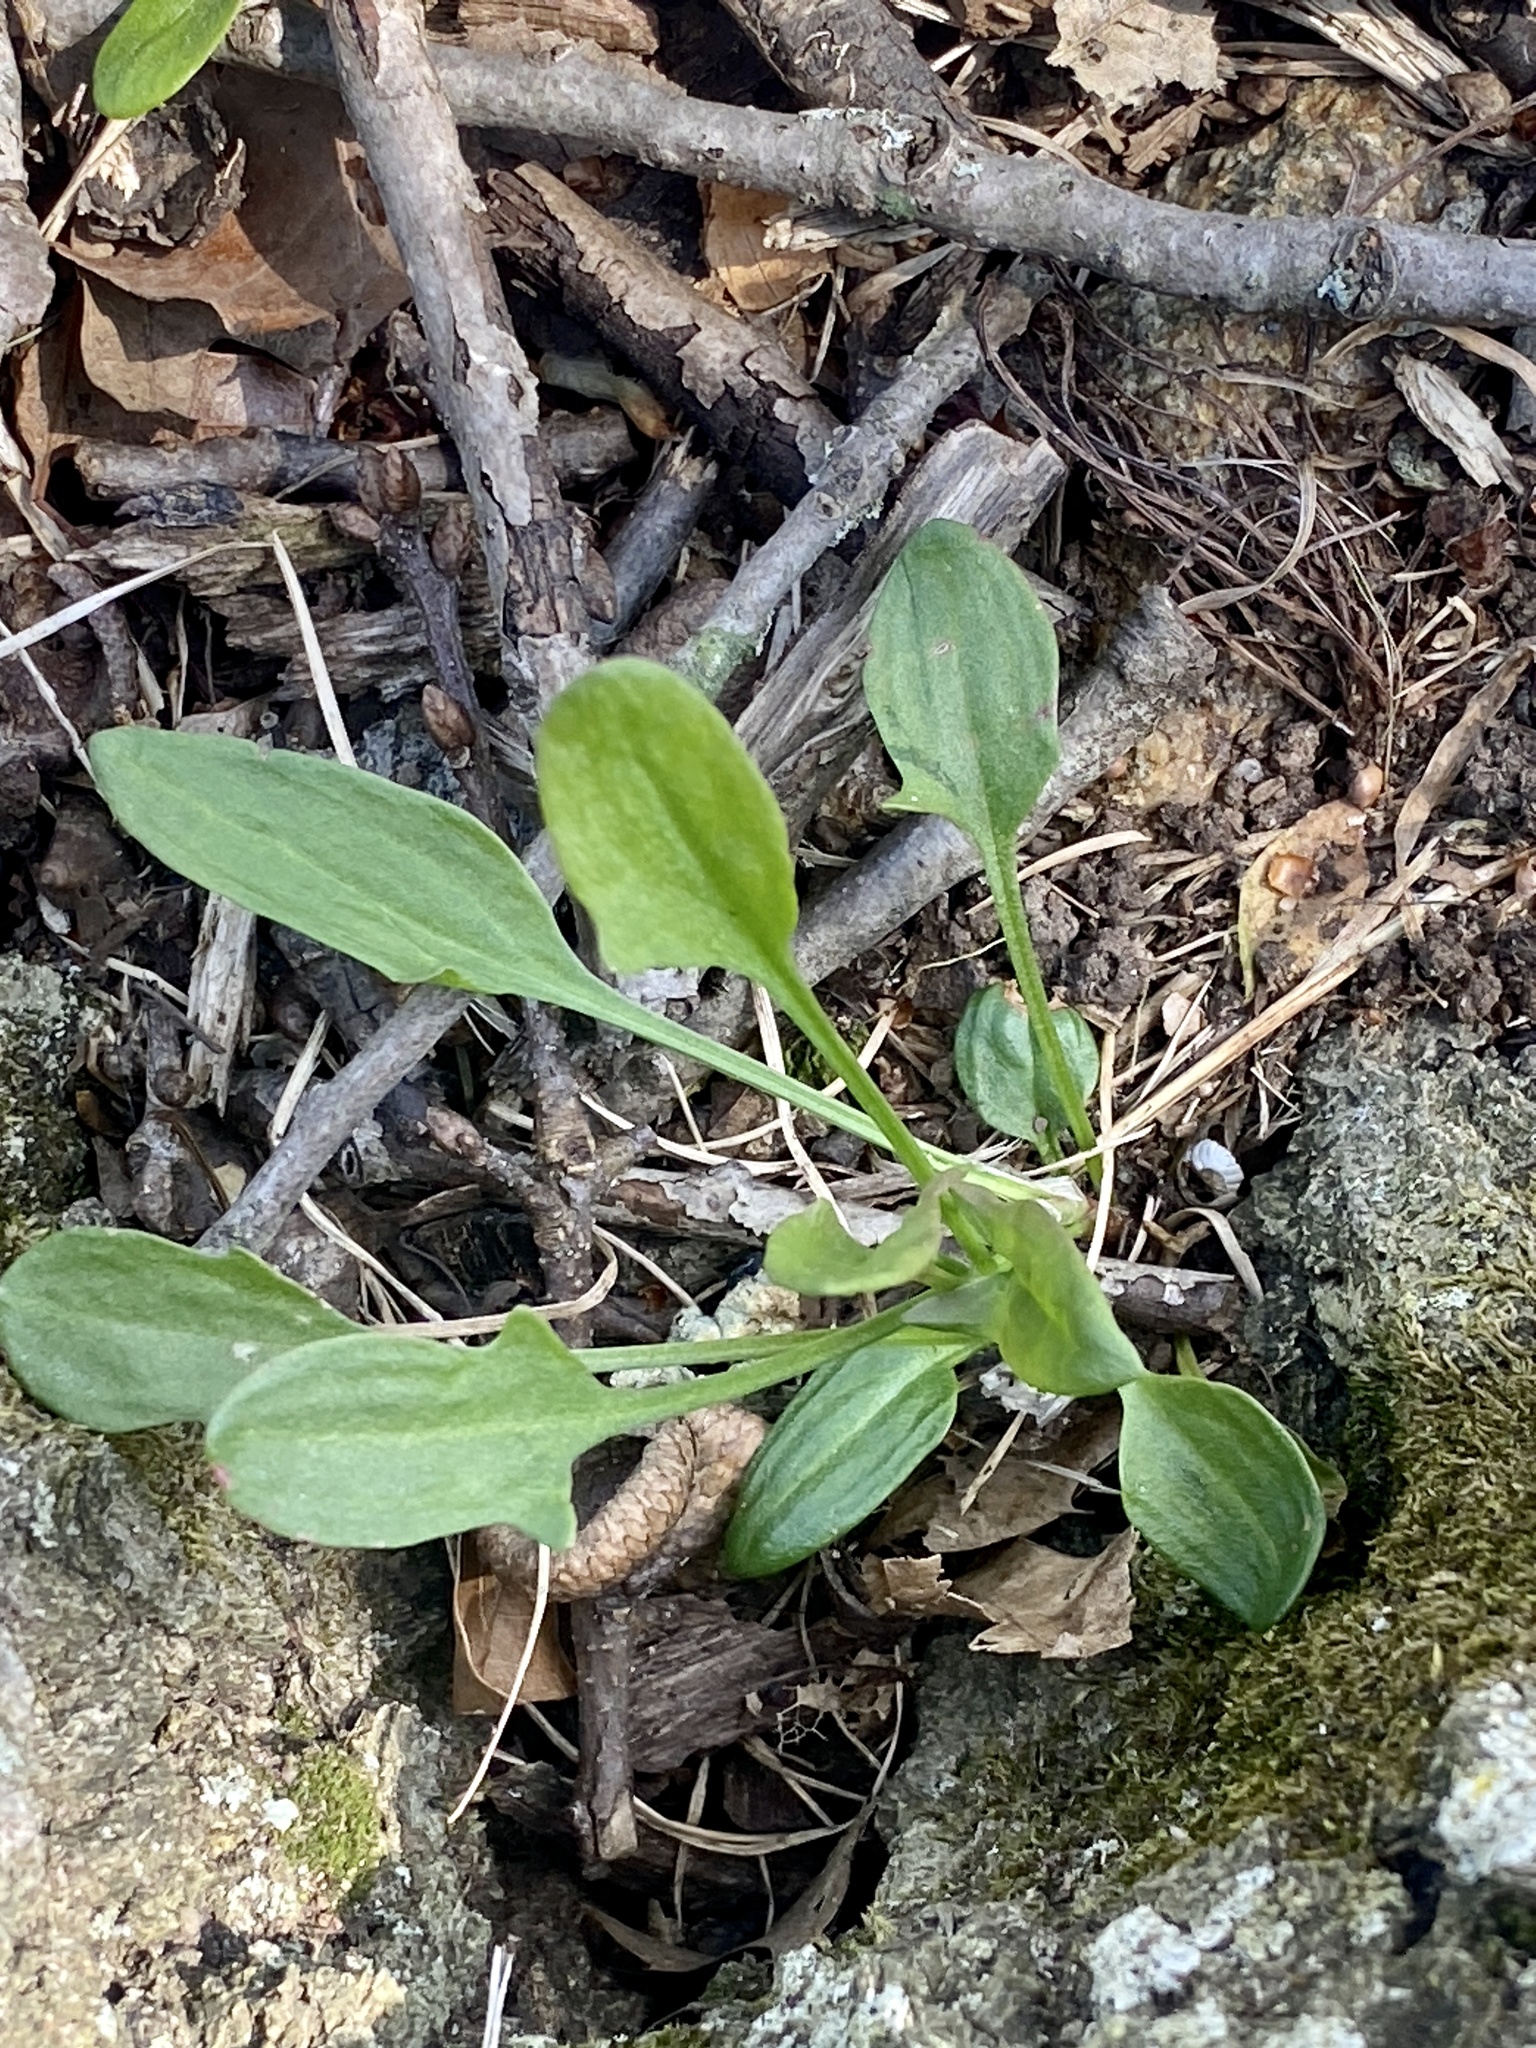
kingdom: Plantae
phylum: Tracheophyta
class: Magnoliopsida
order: Caryophyllales
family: Polygonaceae
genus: Rumex
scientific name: Rumex acetosella
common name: Common sheep sorrel
